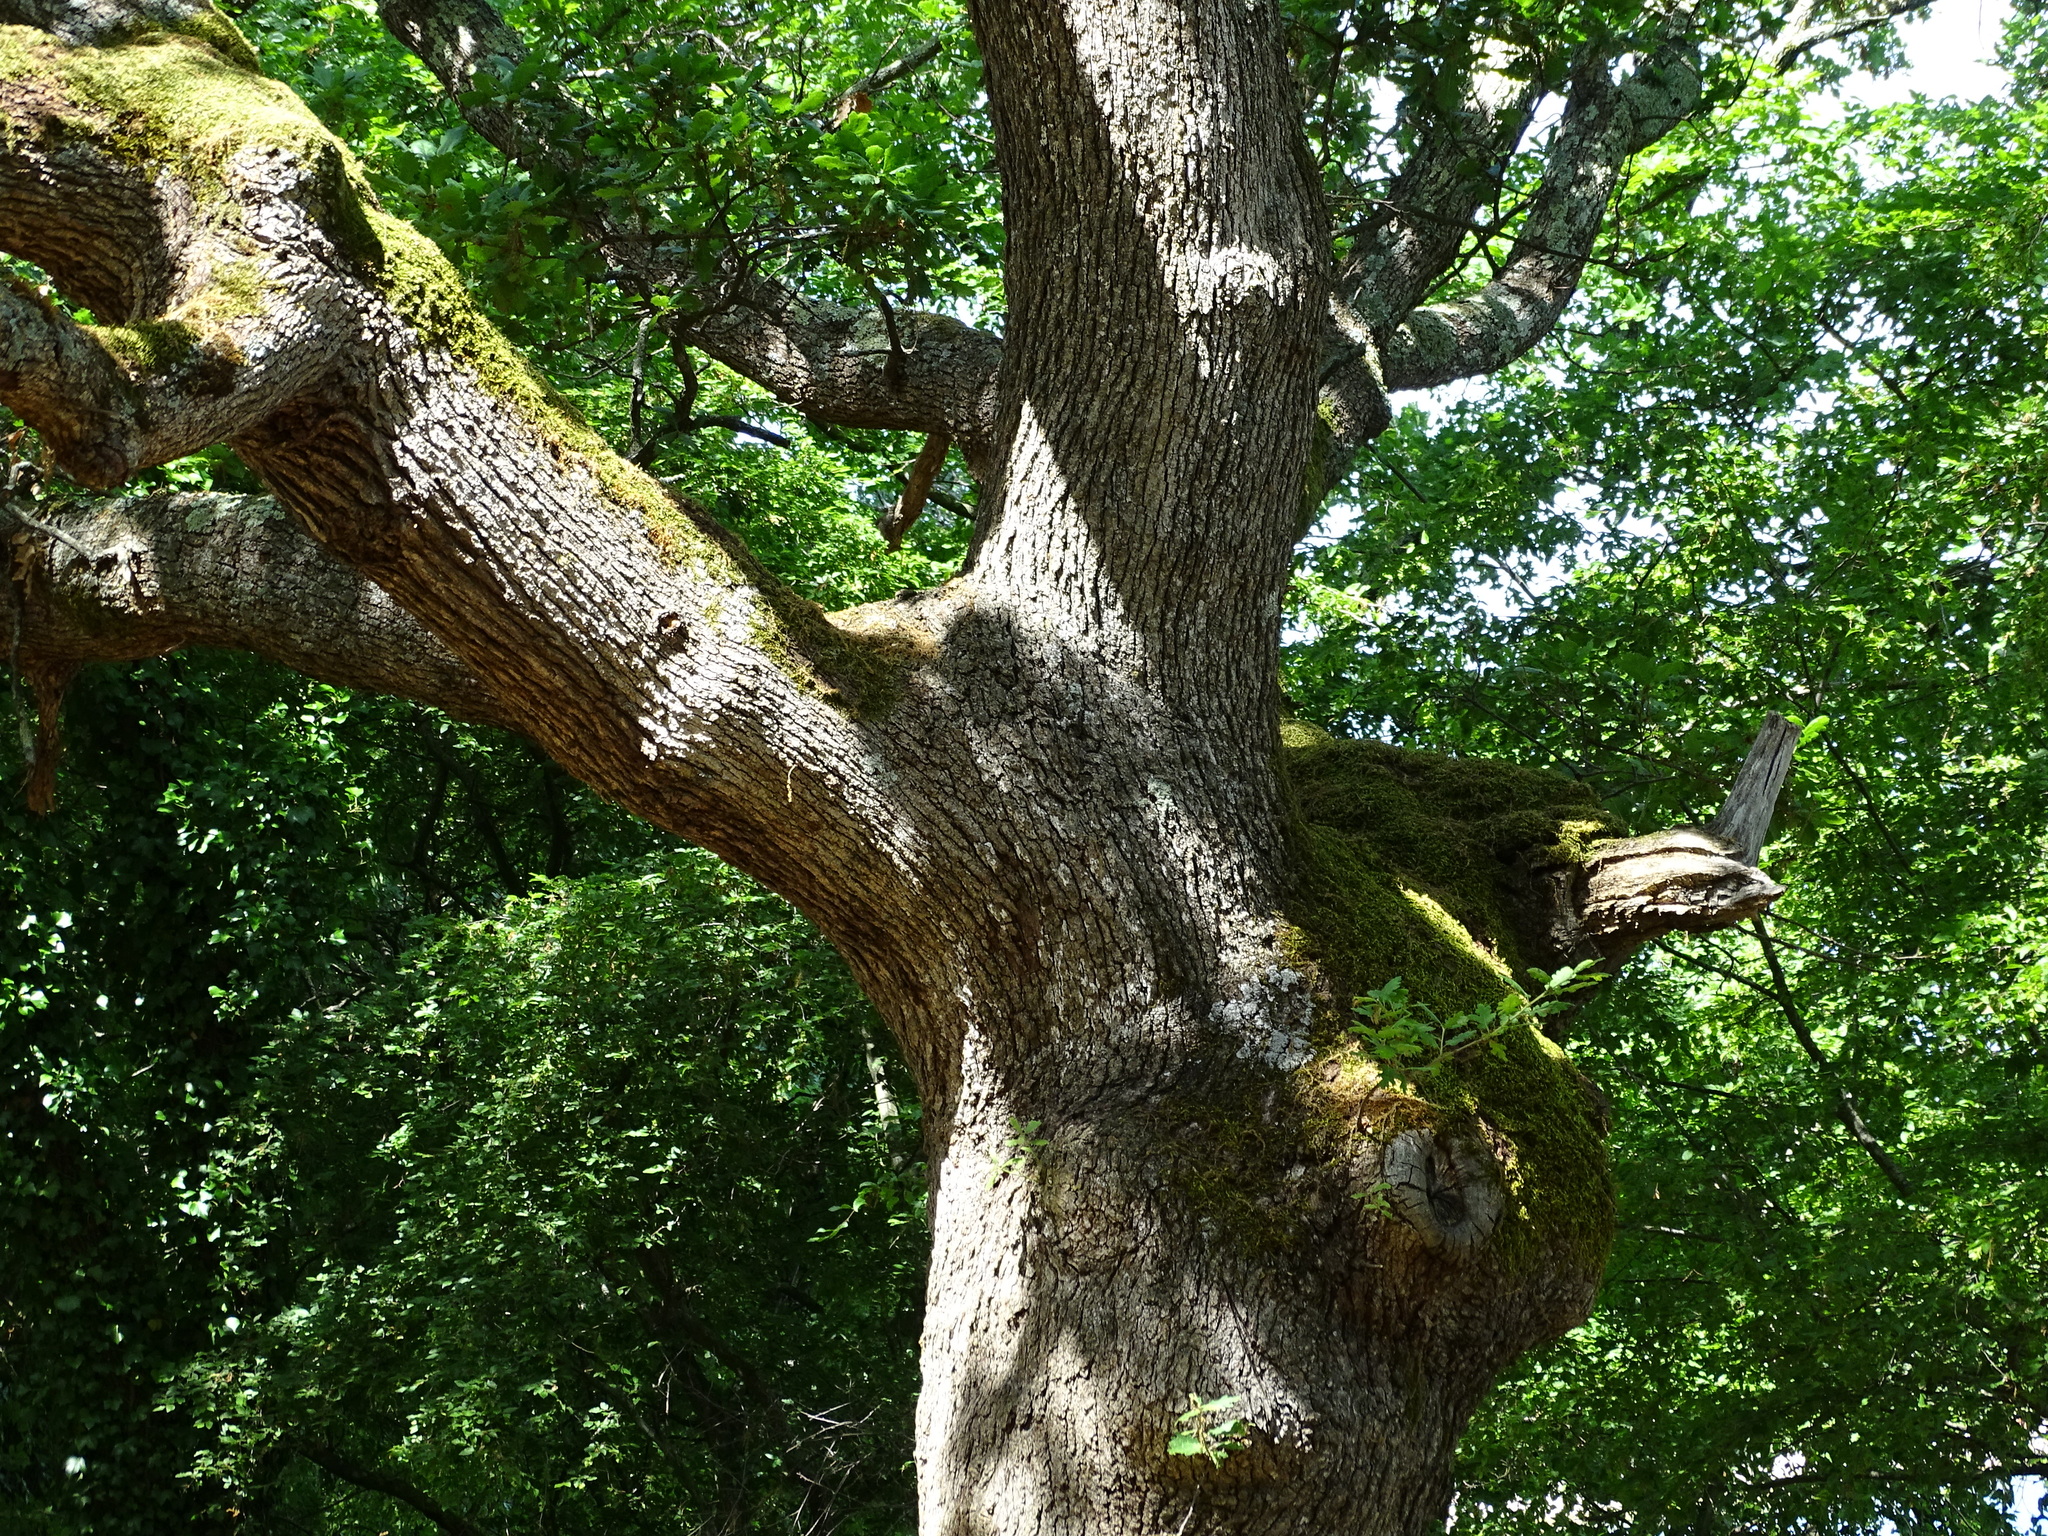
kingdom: Plantae
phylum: Tracheophyta
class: Magnoliopsida
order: Fagales
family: Fagaceae
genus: Quercus
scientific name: Quercus pubescens
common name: Downy oak
